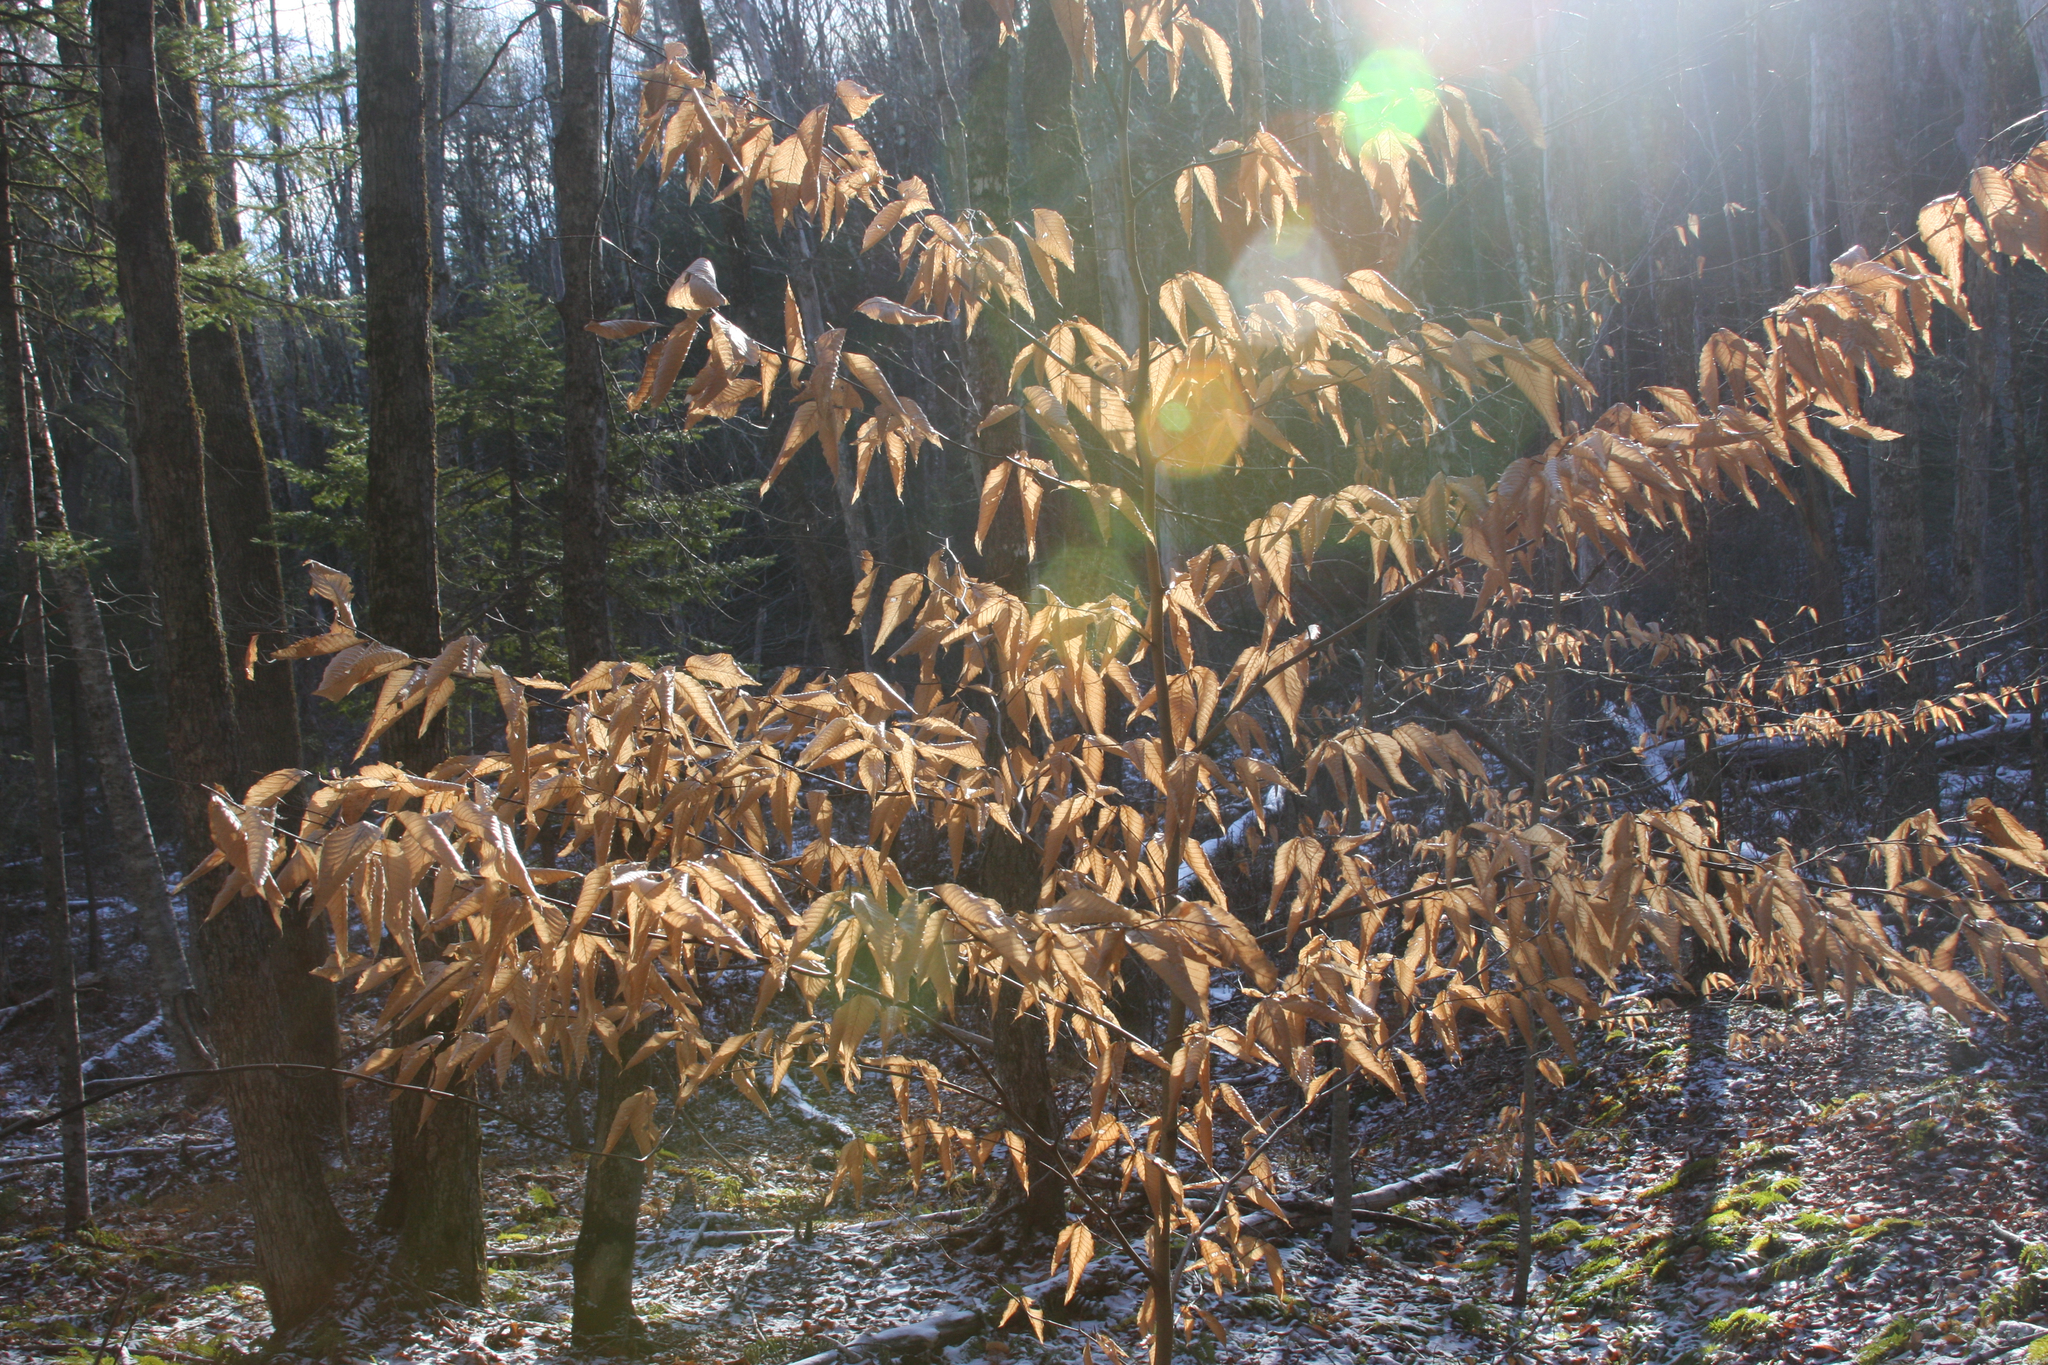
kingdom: Plantae
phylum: Tracheophyta
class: Magnoliopsida
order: Fagales
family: Fagaceae
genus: Fagus
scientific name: Fagus grandifolia
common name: American beech
